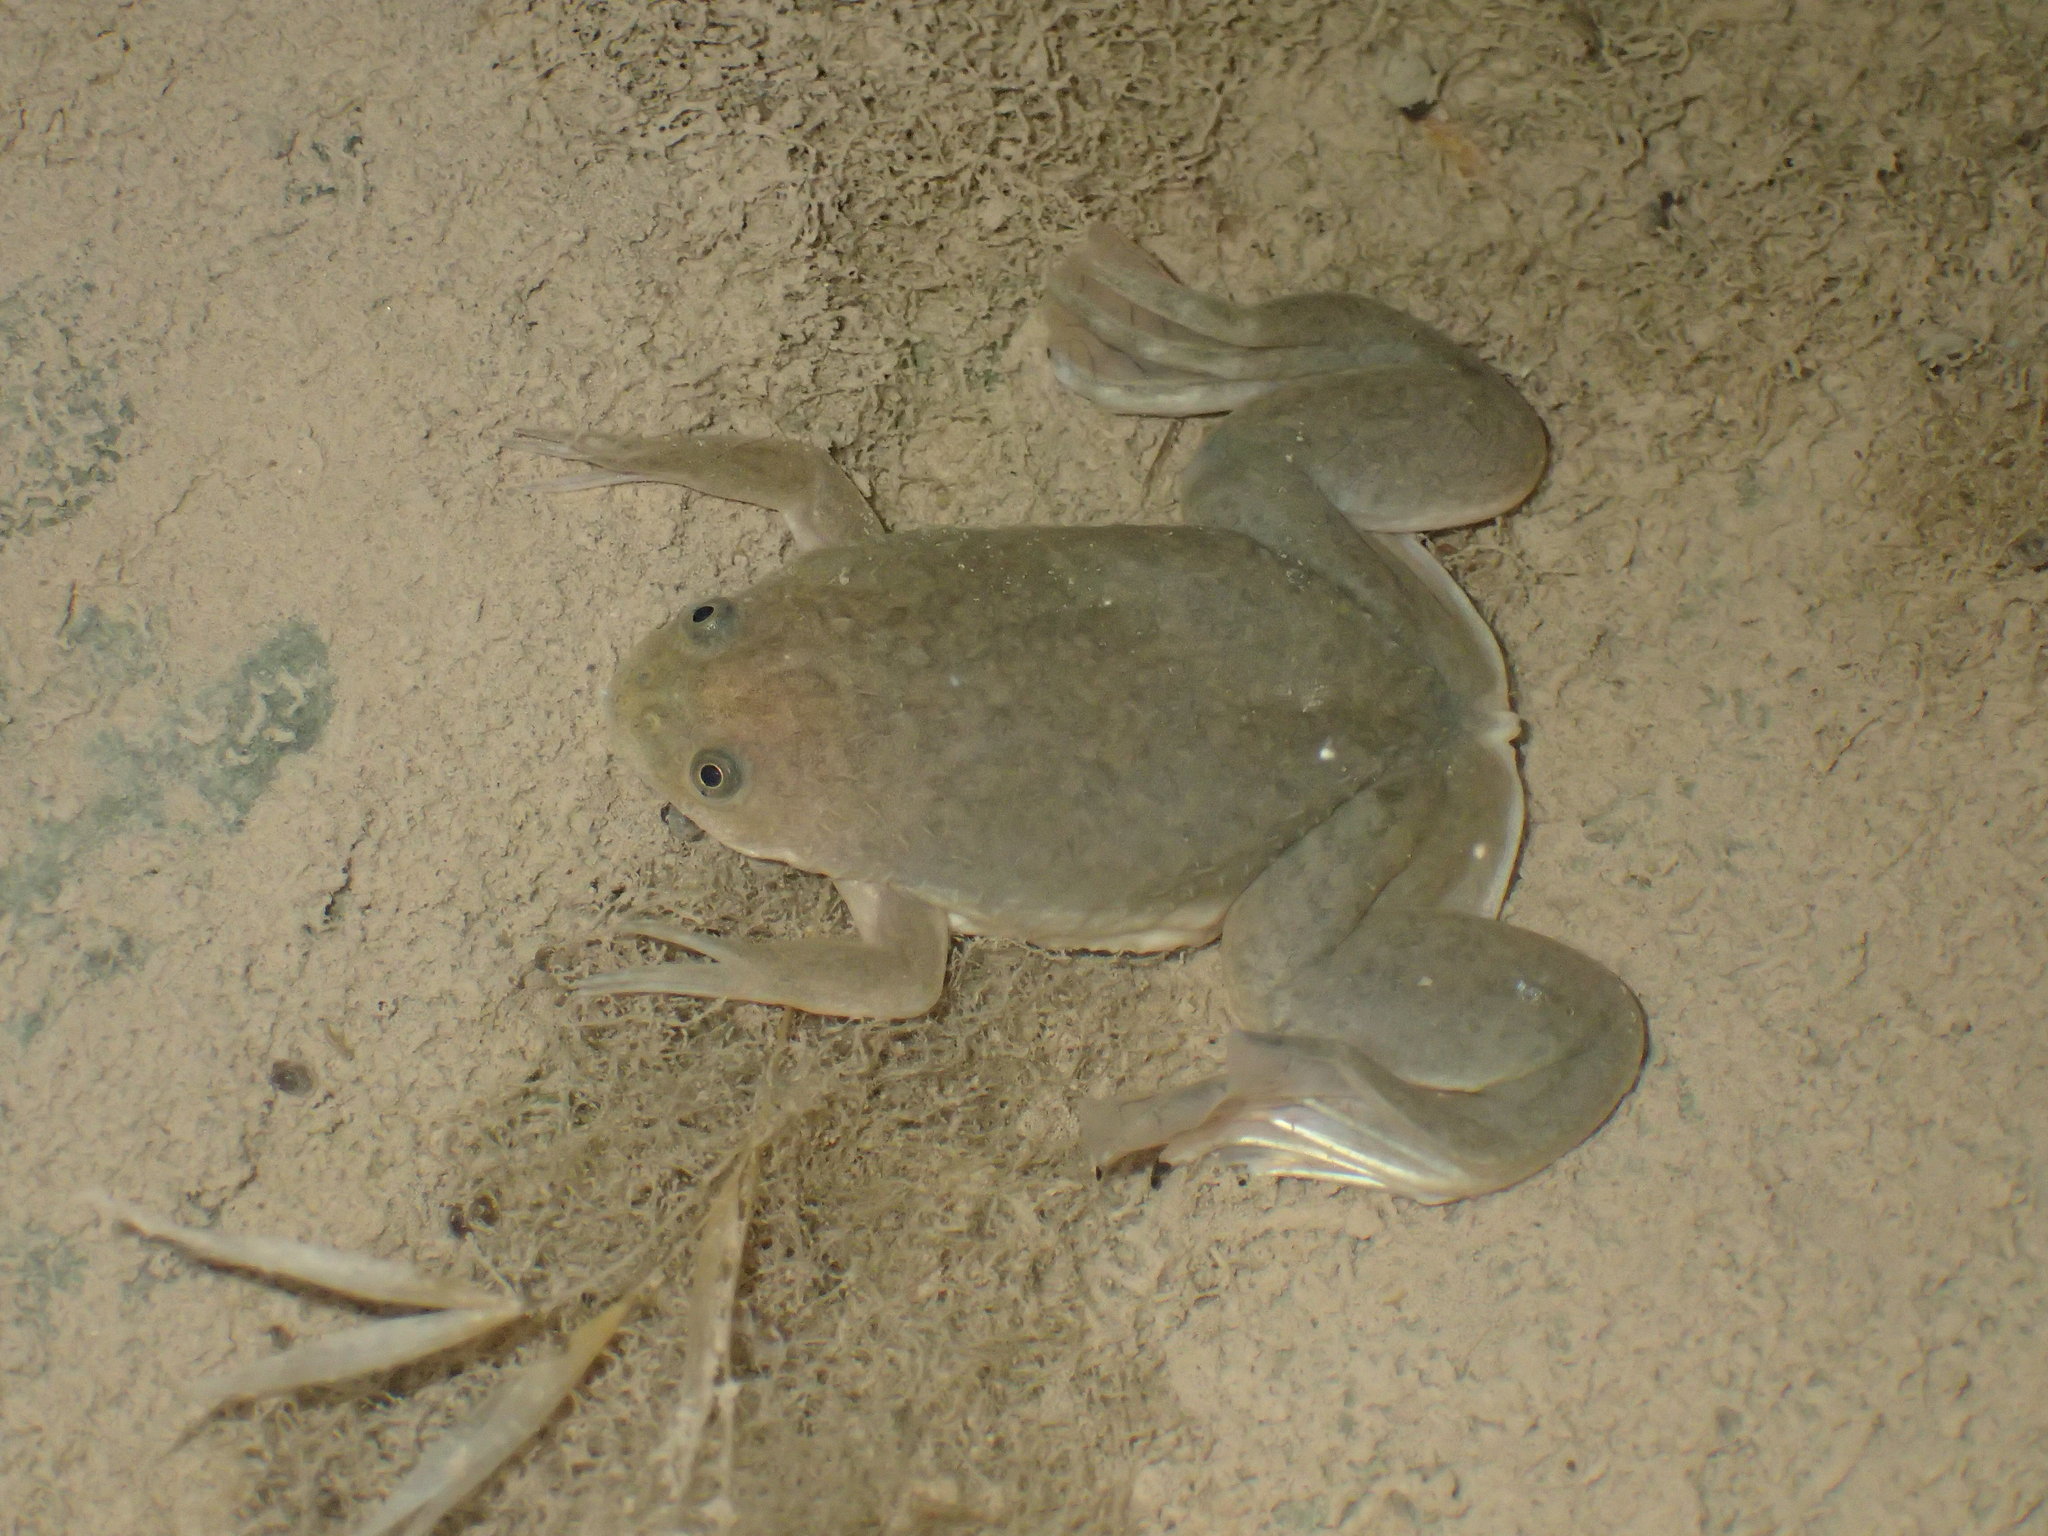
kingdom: Animalia
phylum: Chordata
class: Amphibia
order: Anura
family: Pipidae
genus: Xenopus
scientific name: Xenopus laevis
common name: African clawed frog
